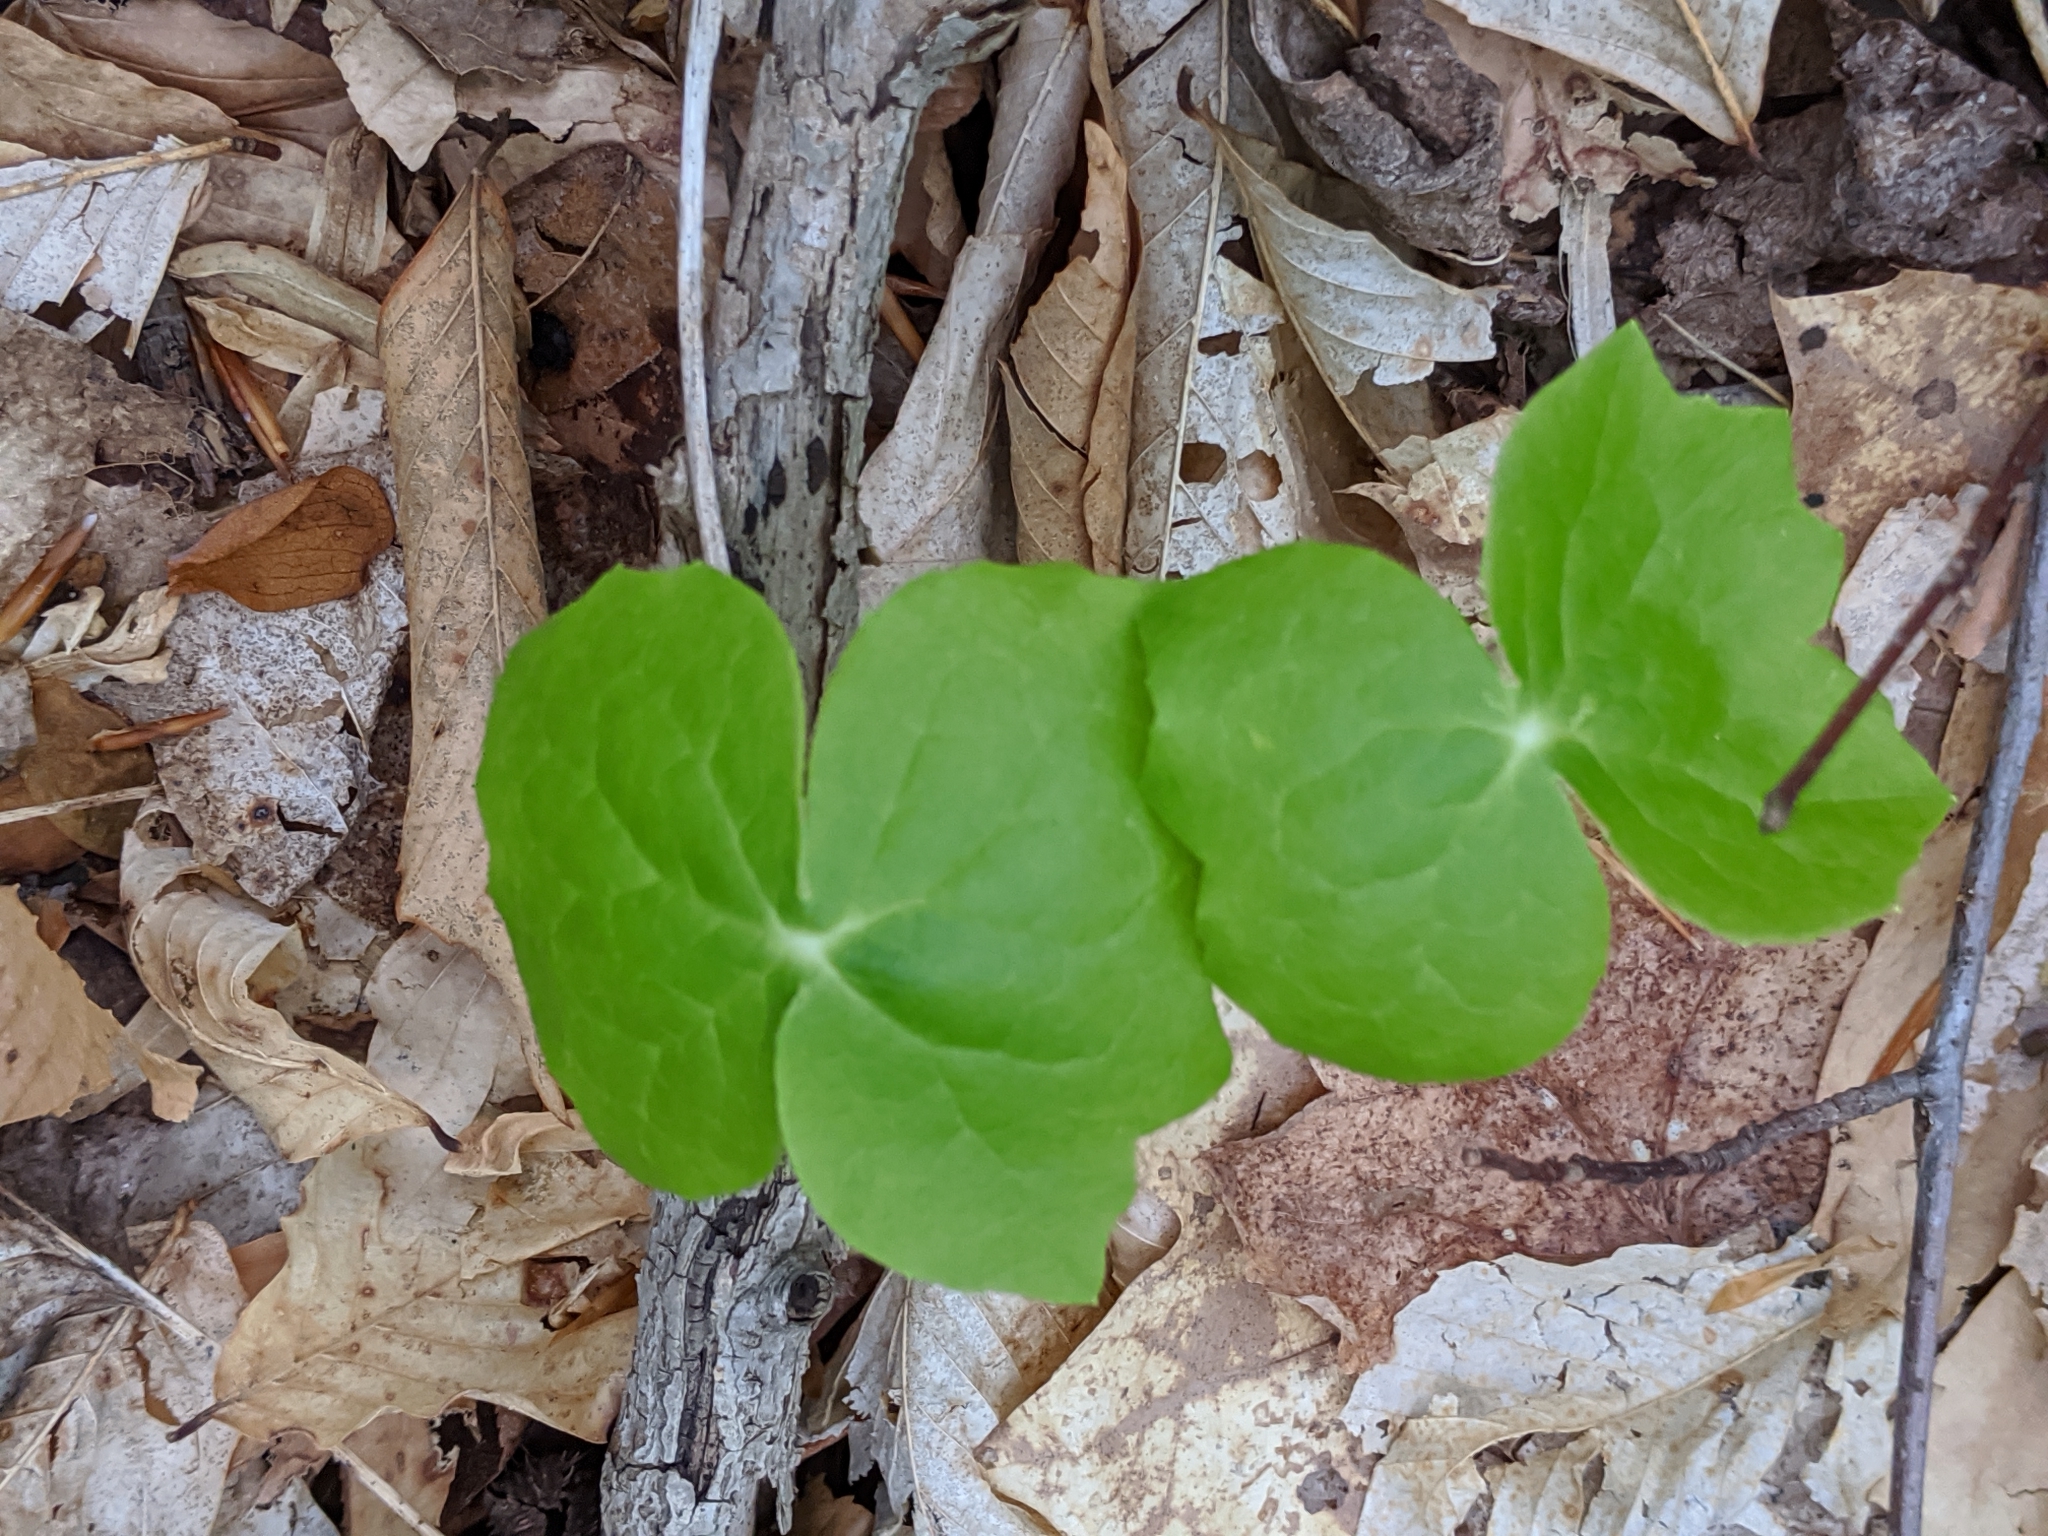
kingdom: Plantae
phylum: Tracheophyta
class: Magnoliopsida
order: Ranunculales
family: Berberidaceae
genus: Podophyllum
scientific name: Podophyllum peltatum
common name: Wild mandrake
